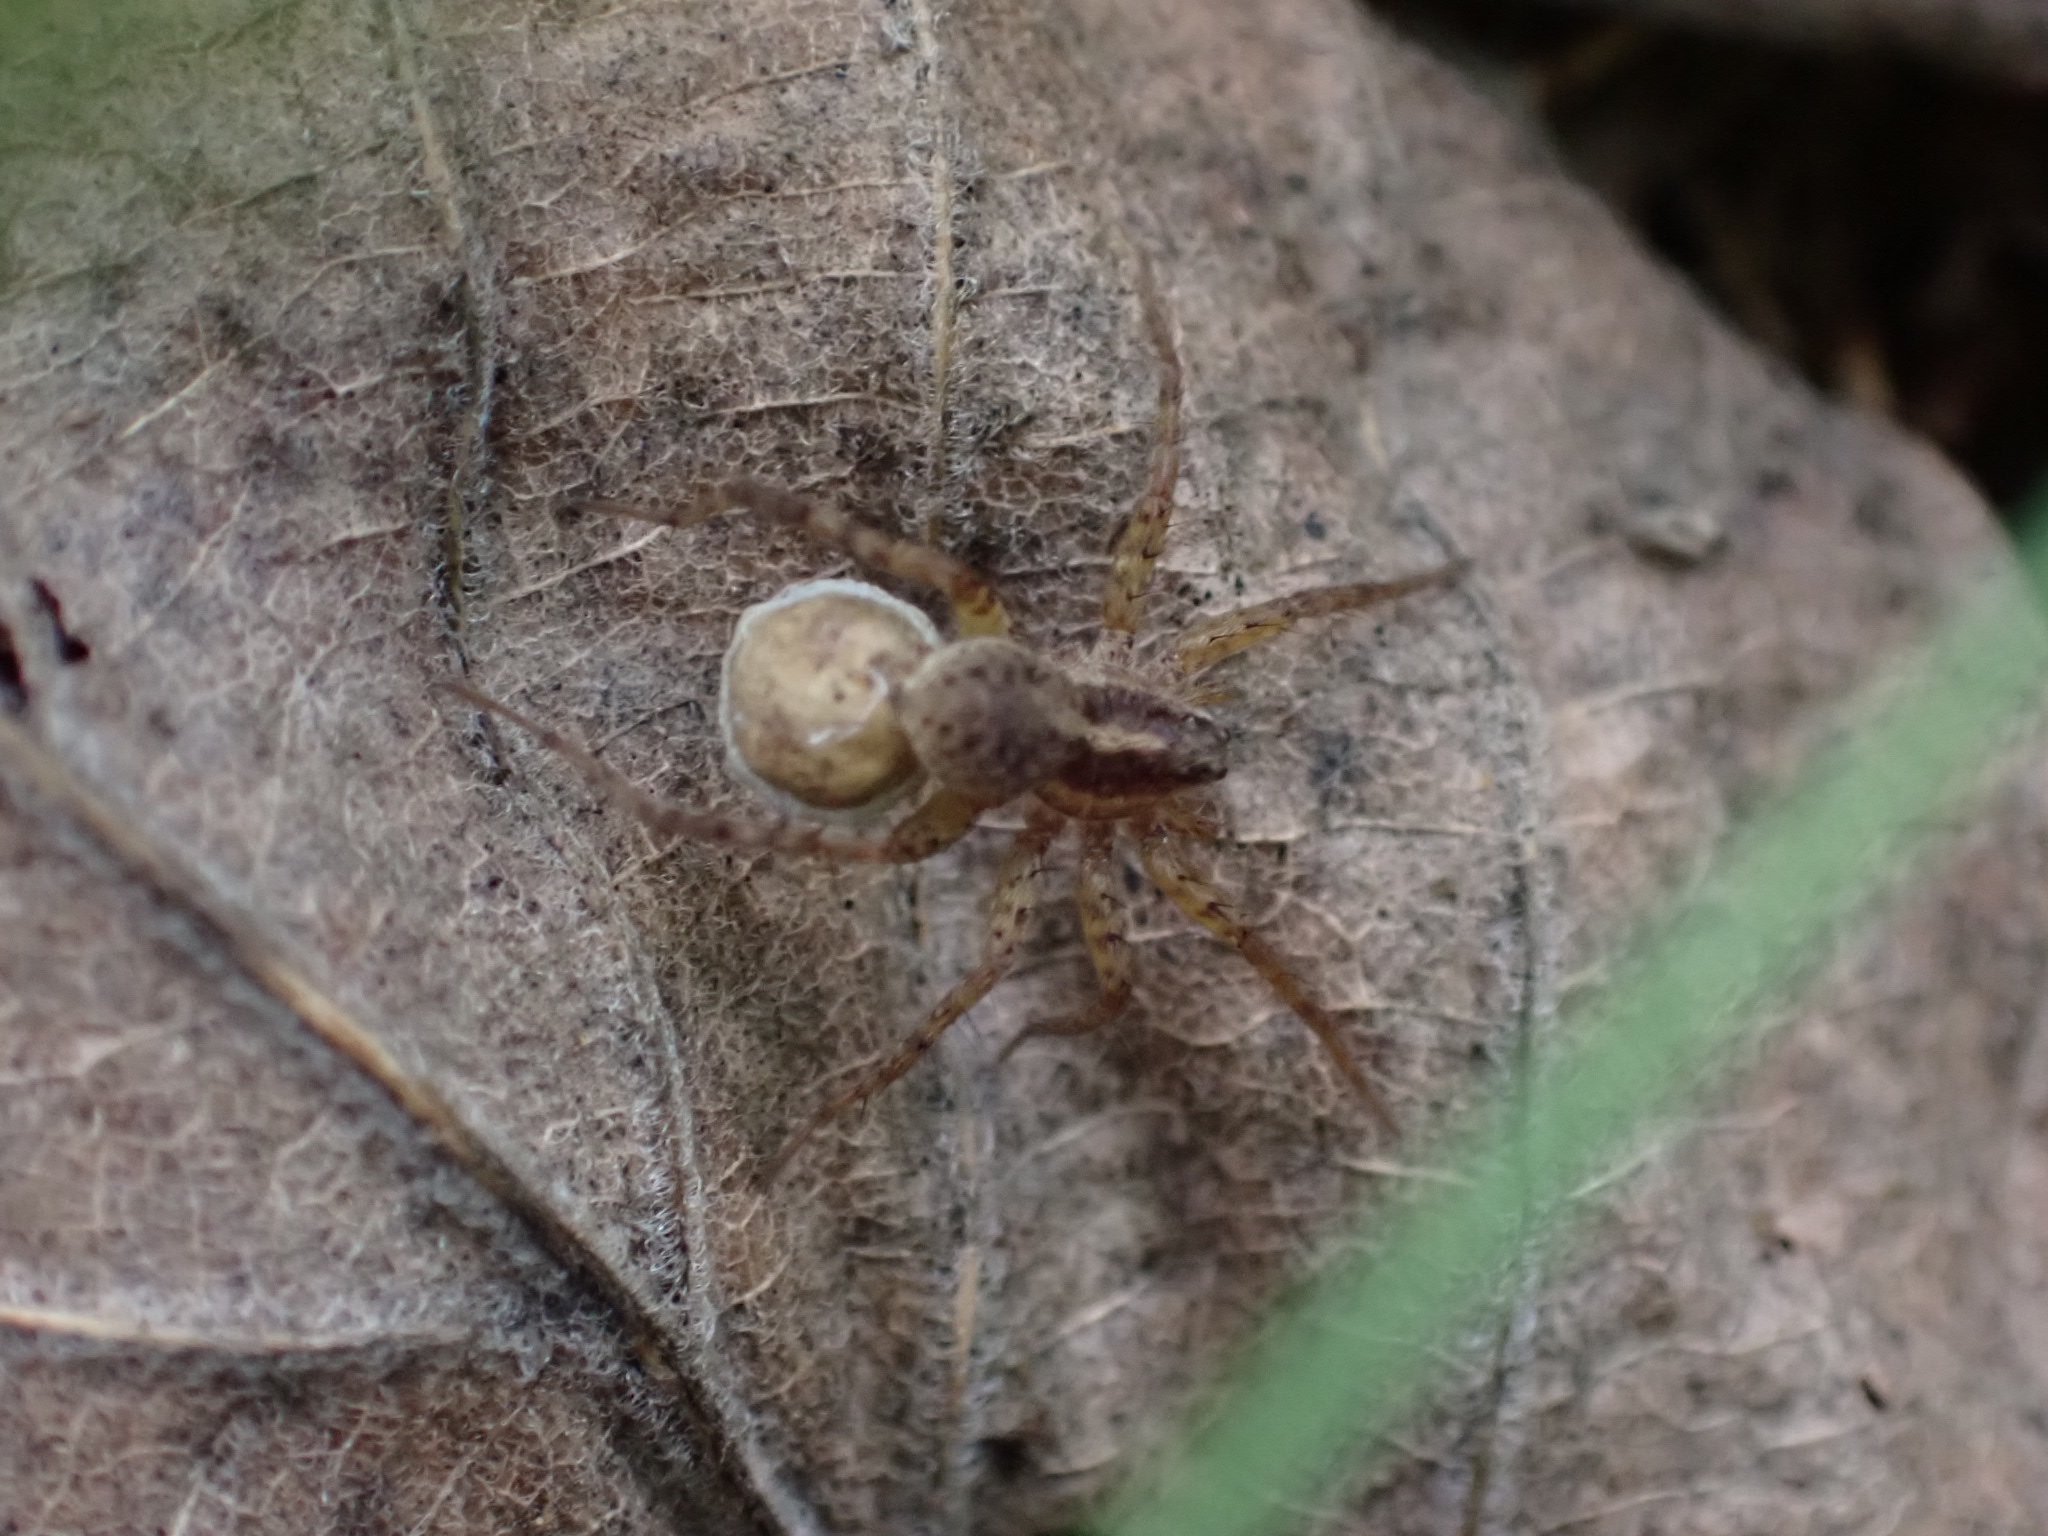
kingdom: Animalia
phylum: Arthropoda
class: Arachnida
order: Araneae
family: Lycosidae
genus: Pardosa
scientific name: Pardosa
